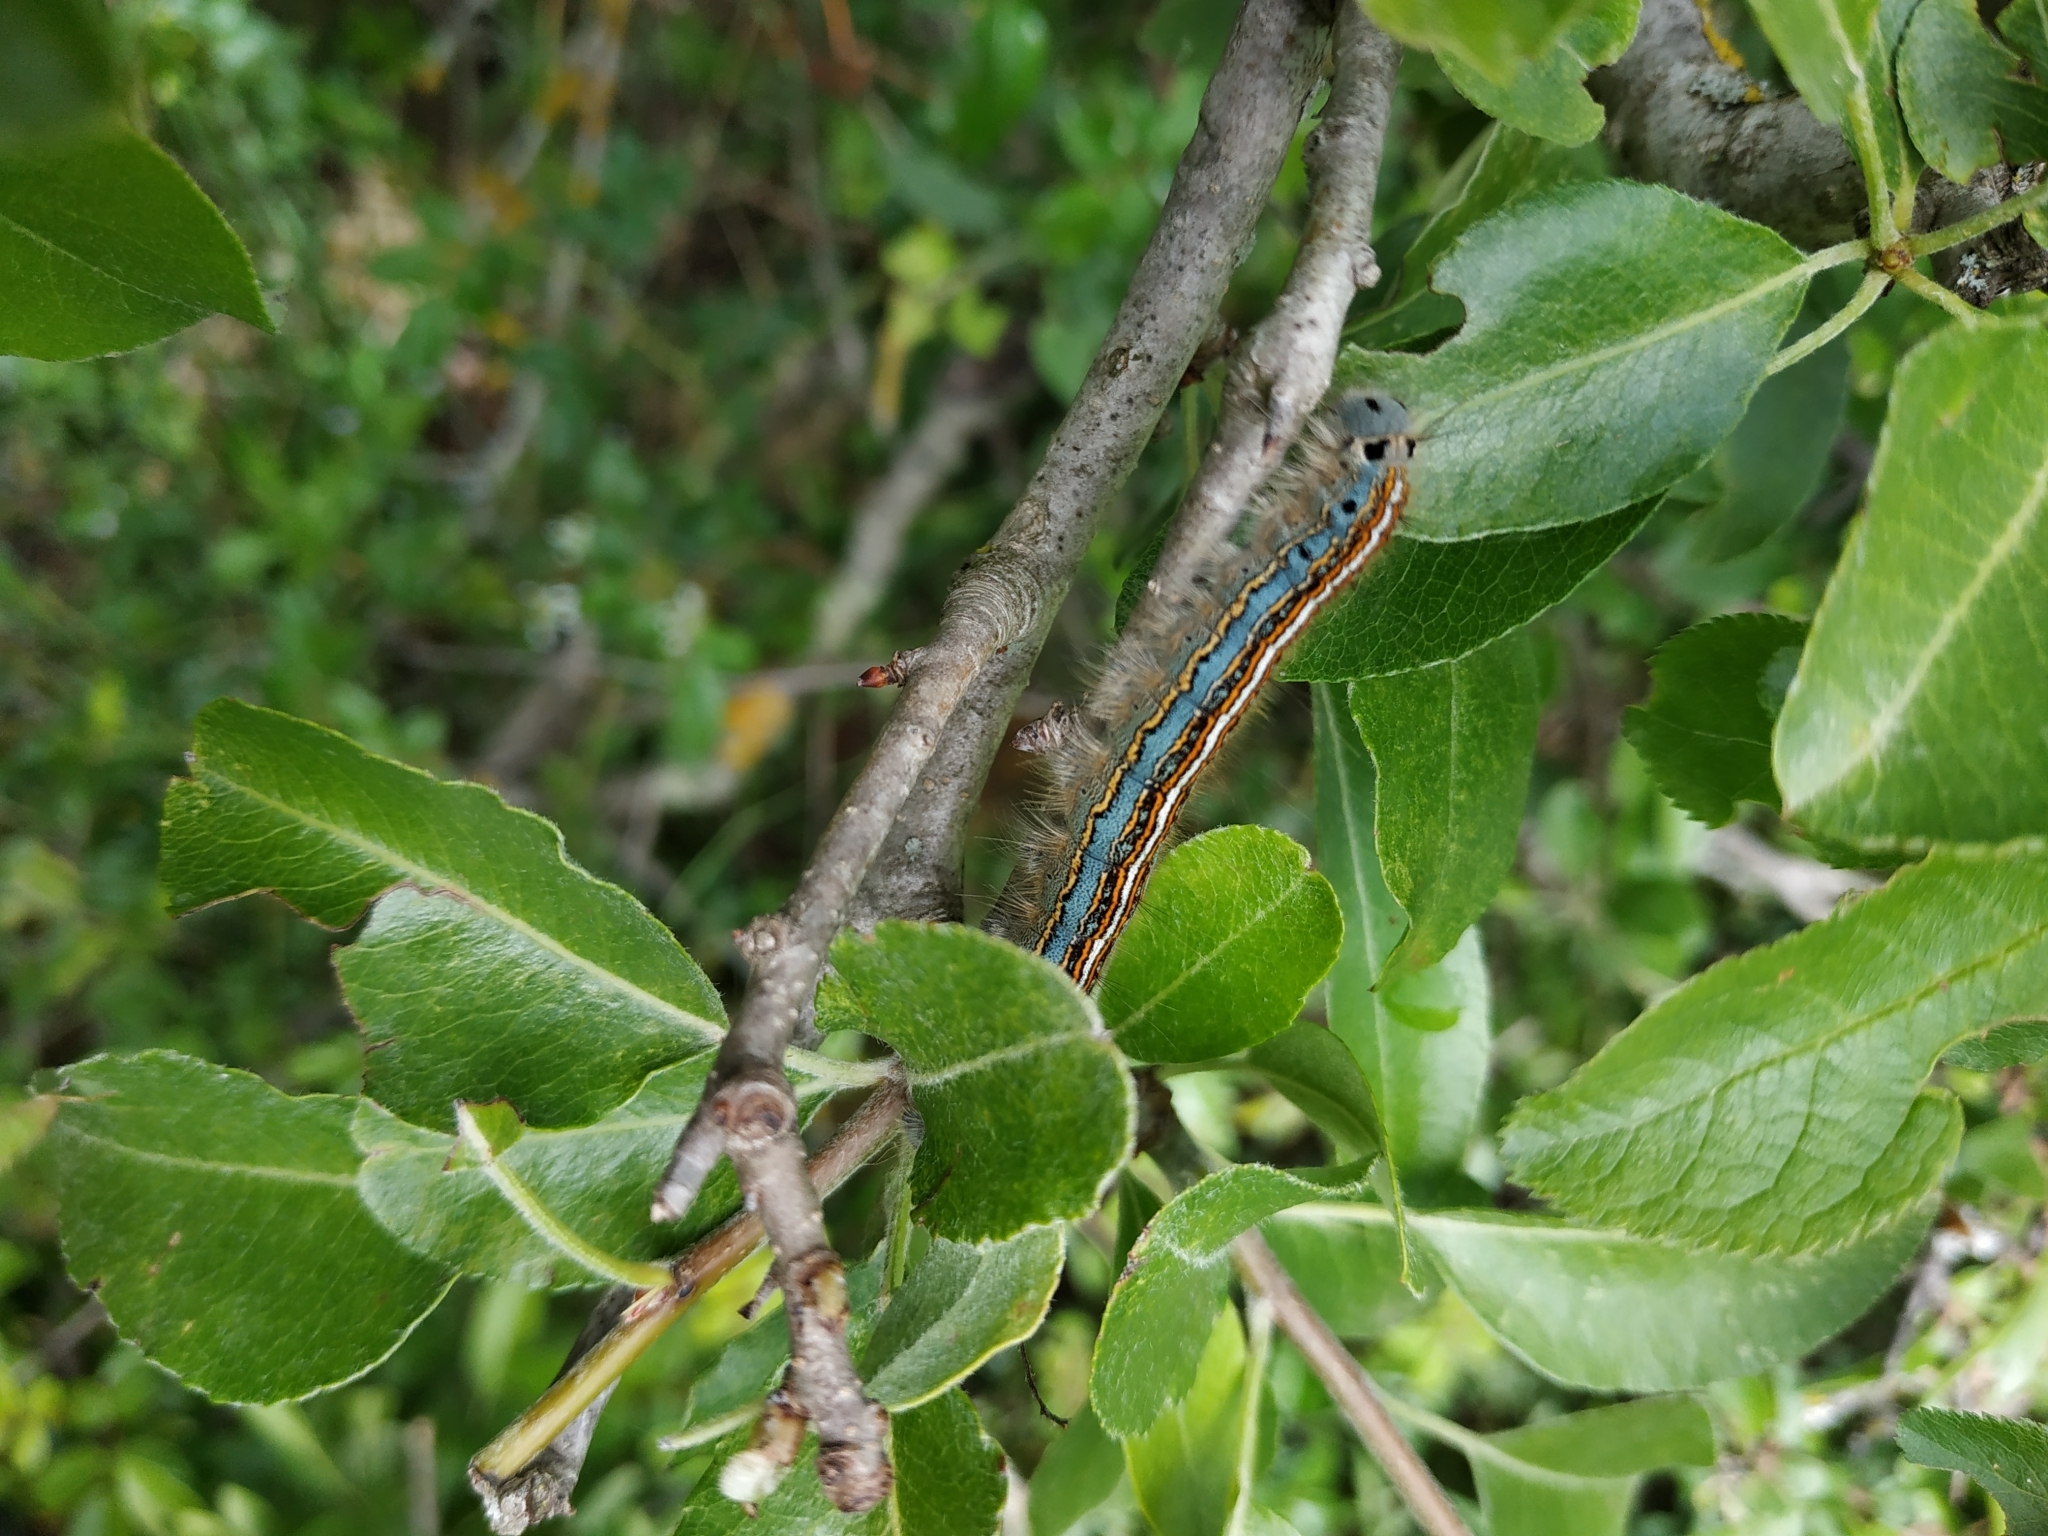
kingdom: Animalia
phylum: Arthropoda
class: Insecta
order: Lepidoptera
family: Lasiocampidae
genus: Malacosoma
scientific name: Malacosoma neustria
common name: The lackey
